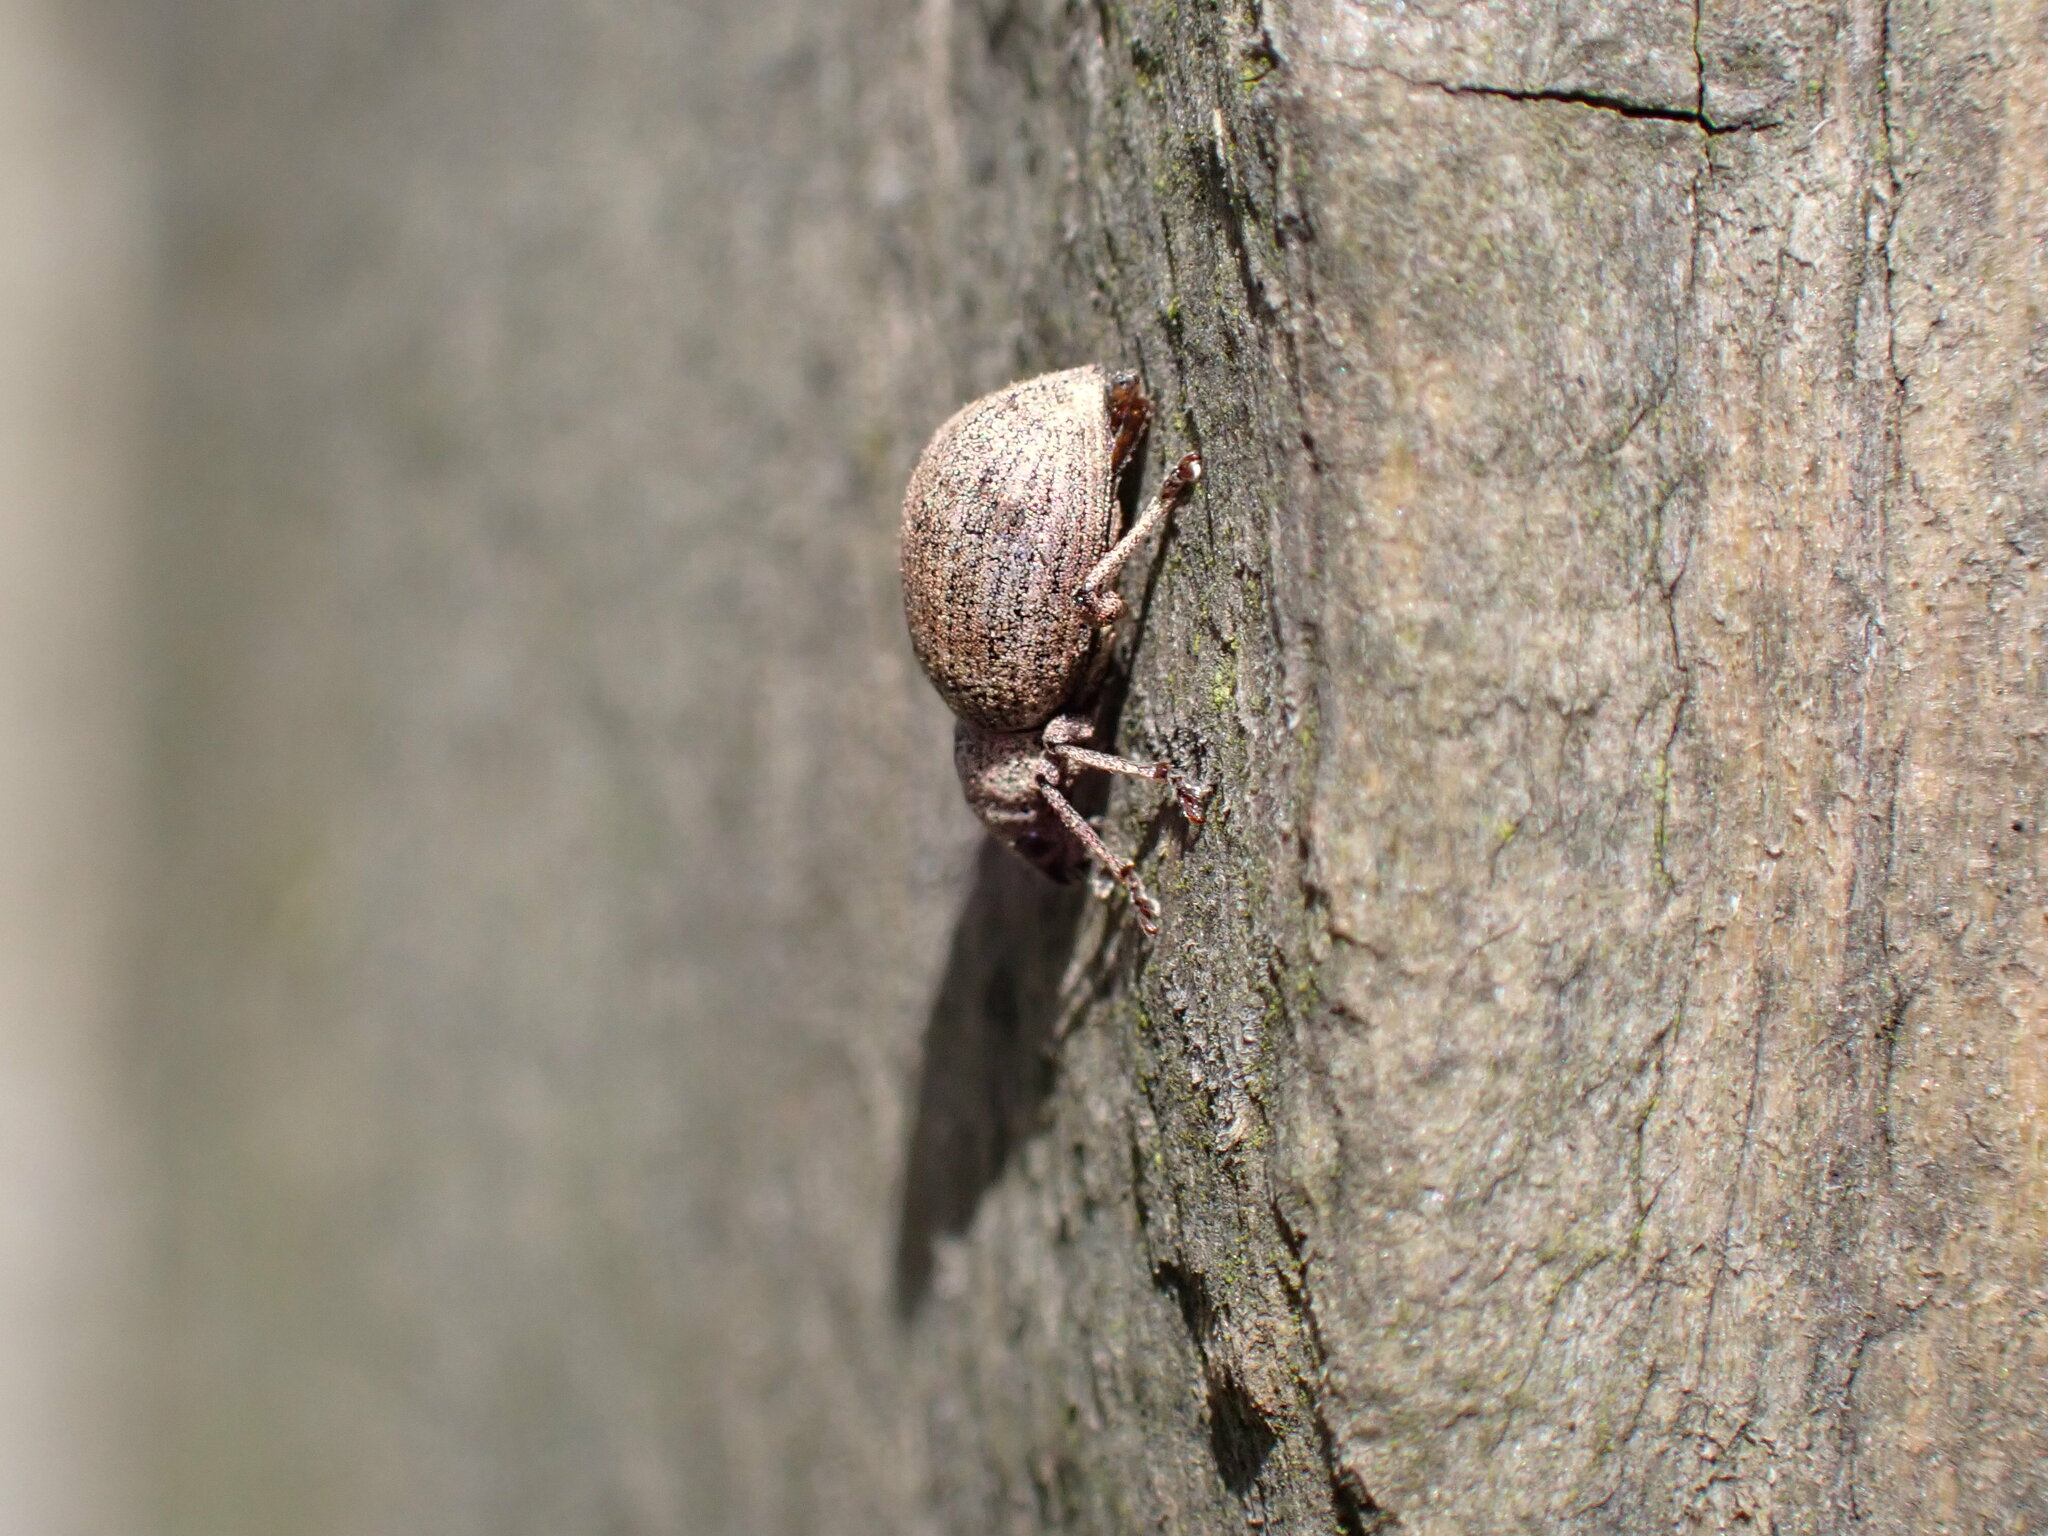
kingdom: Animalia
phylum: Arthropoda
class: Insecta
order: Coleoptera
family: Curculionidae
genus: Sciaphilus
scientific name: Sciaphilus asperatus
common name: Weevil
